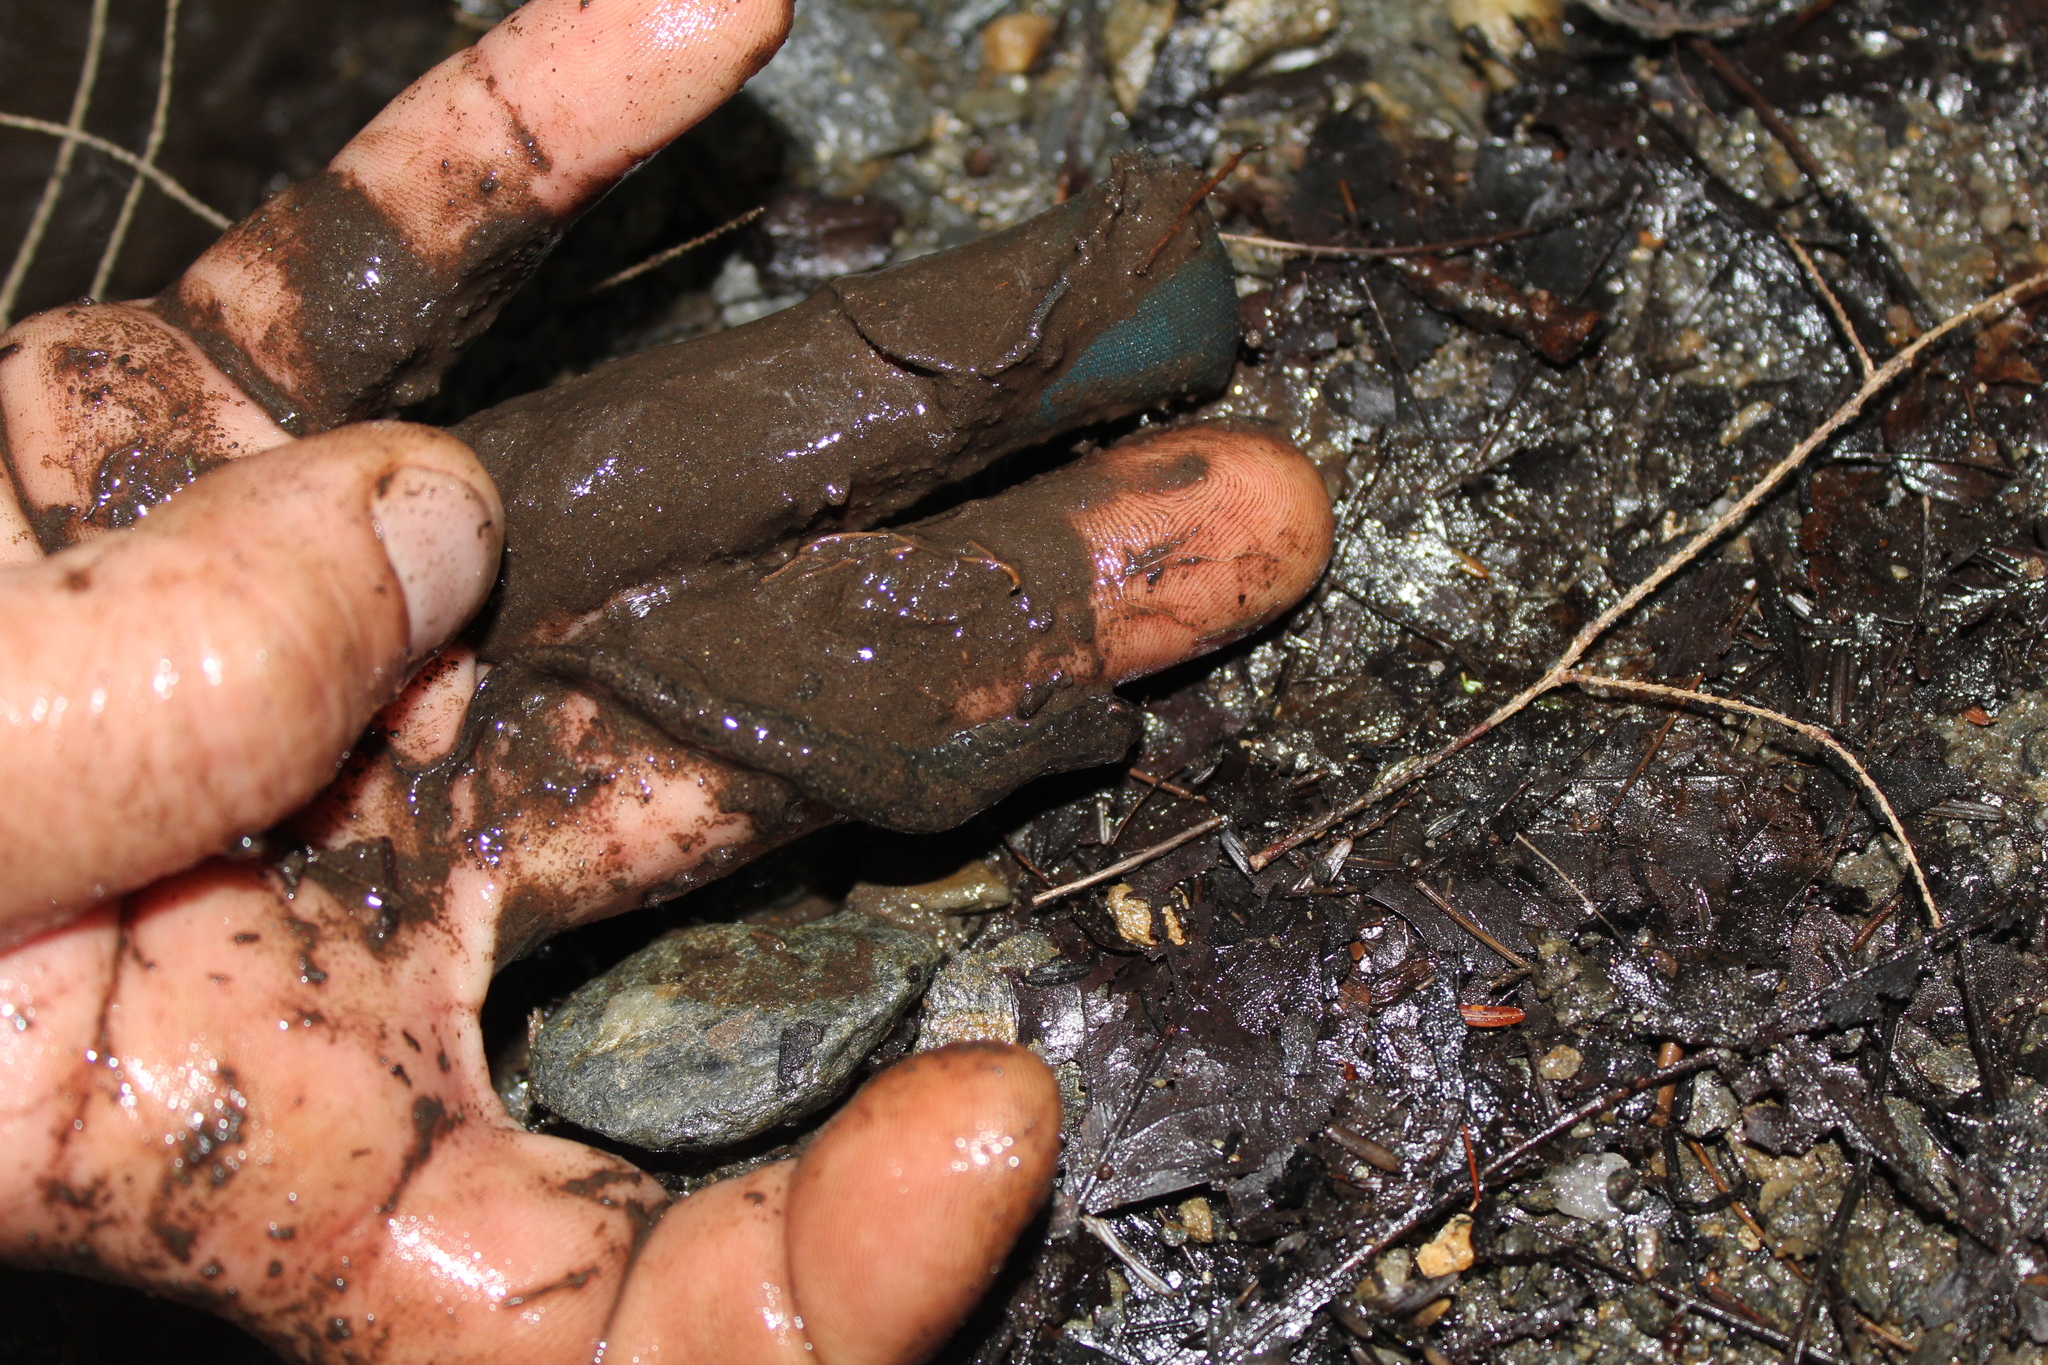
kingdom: Animalia
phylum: Chordata
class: Amphibia
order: Caudata
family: Plethodontidae
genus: Desmognathus
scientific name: Desmognathus fuscus
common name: Northern dusky salamander
